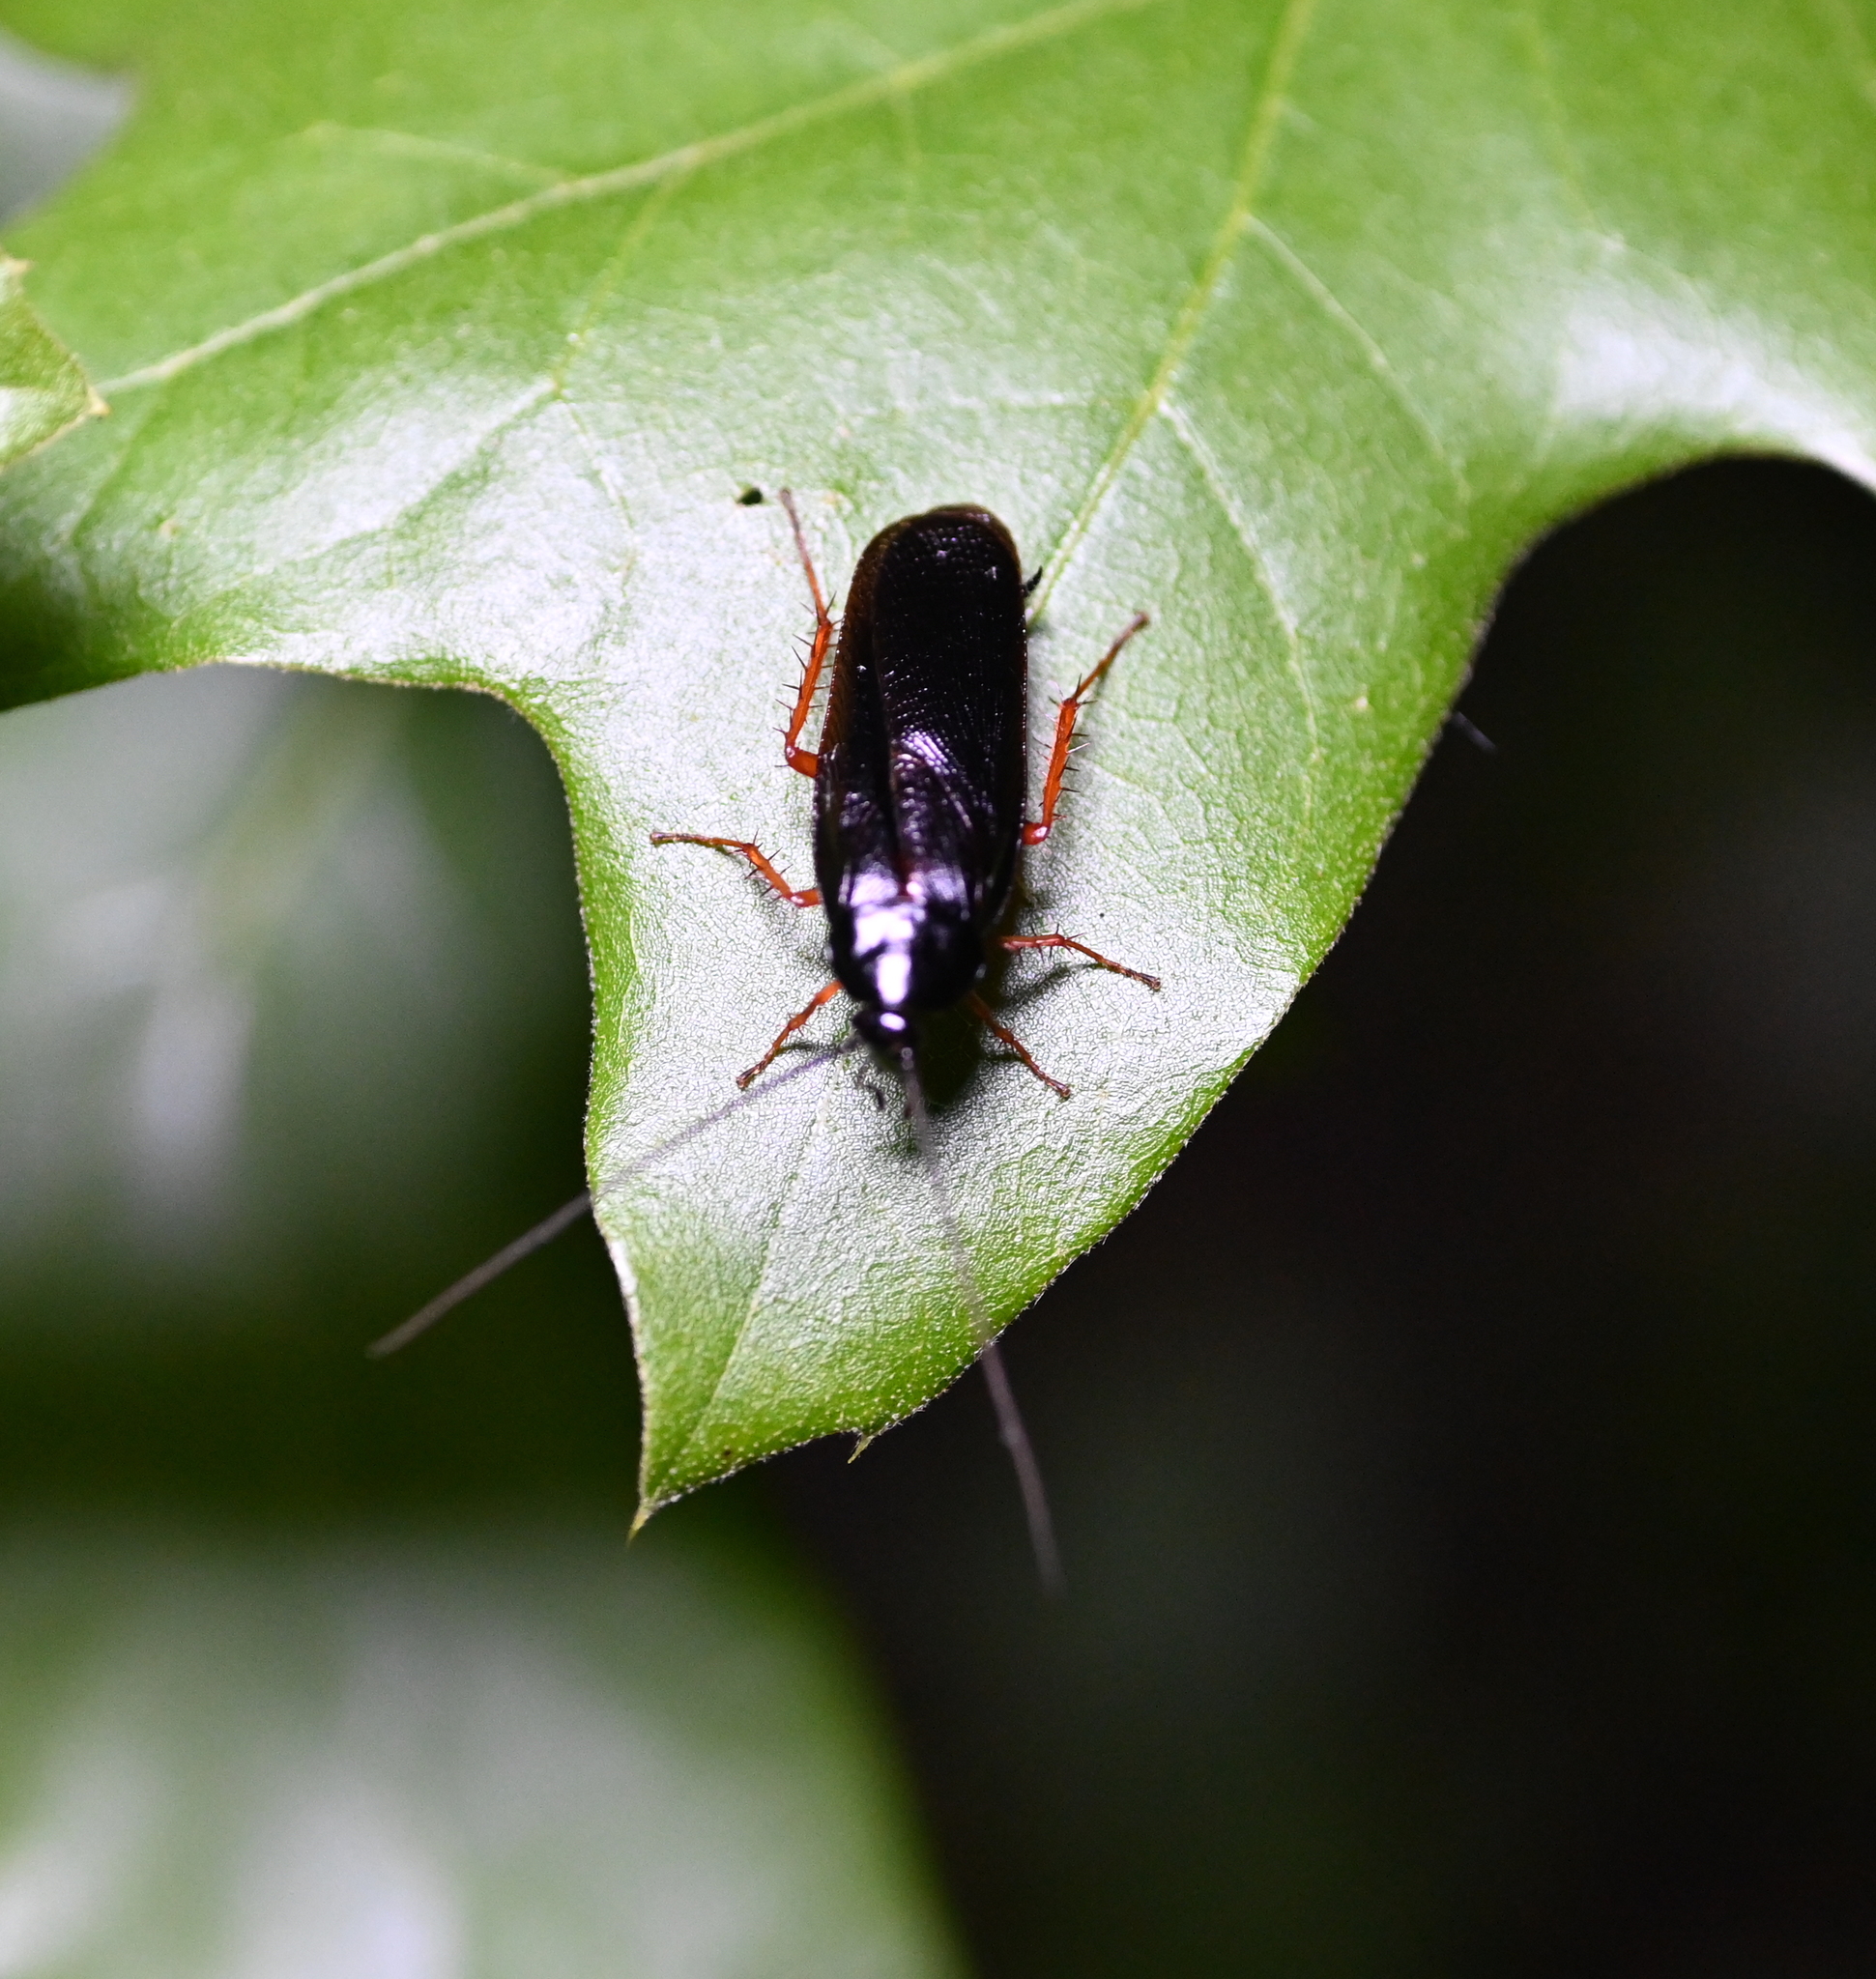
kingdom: Animalia
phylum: Arthropoda
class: Insecta
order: Blattodea
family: Ectobiidae
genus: Ischnoptera
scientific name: Ischnoptera deropeltiformis
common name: Dark wood cockroach
